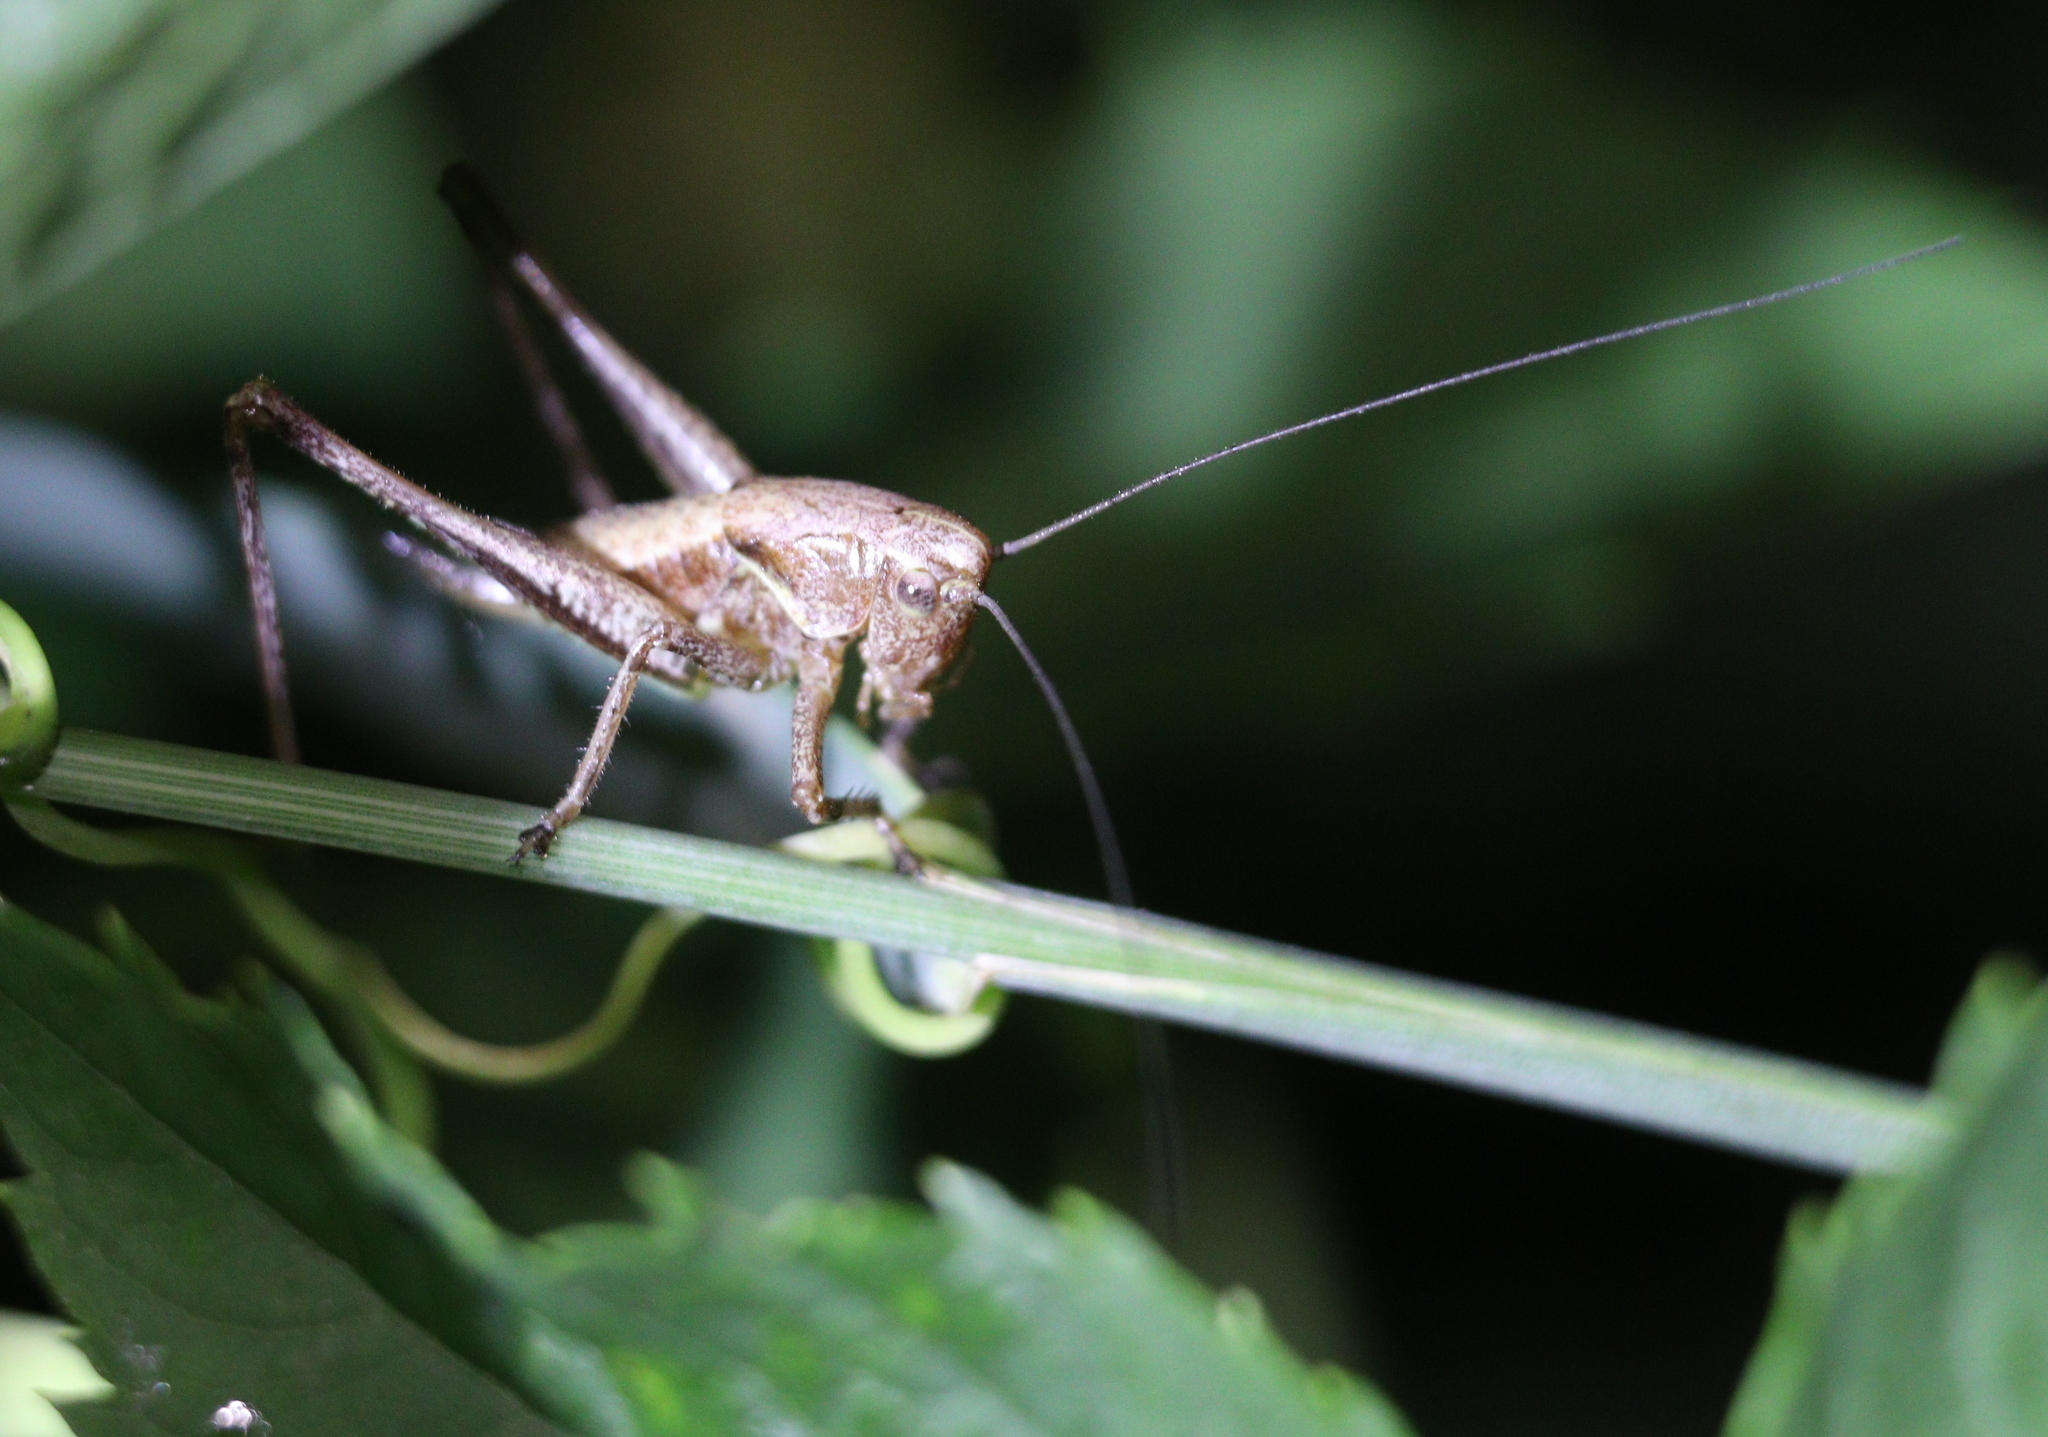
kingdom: Animalia
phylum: Arthropoda
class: Insecta
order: Orthoptera
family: Tettigoniidae
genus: Pholidoptera
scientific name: Pholidoptera griseoaptera
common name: Dark bush-cricket
